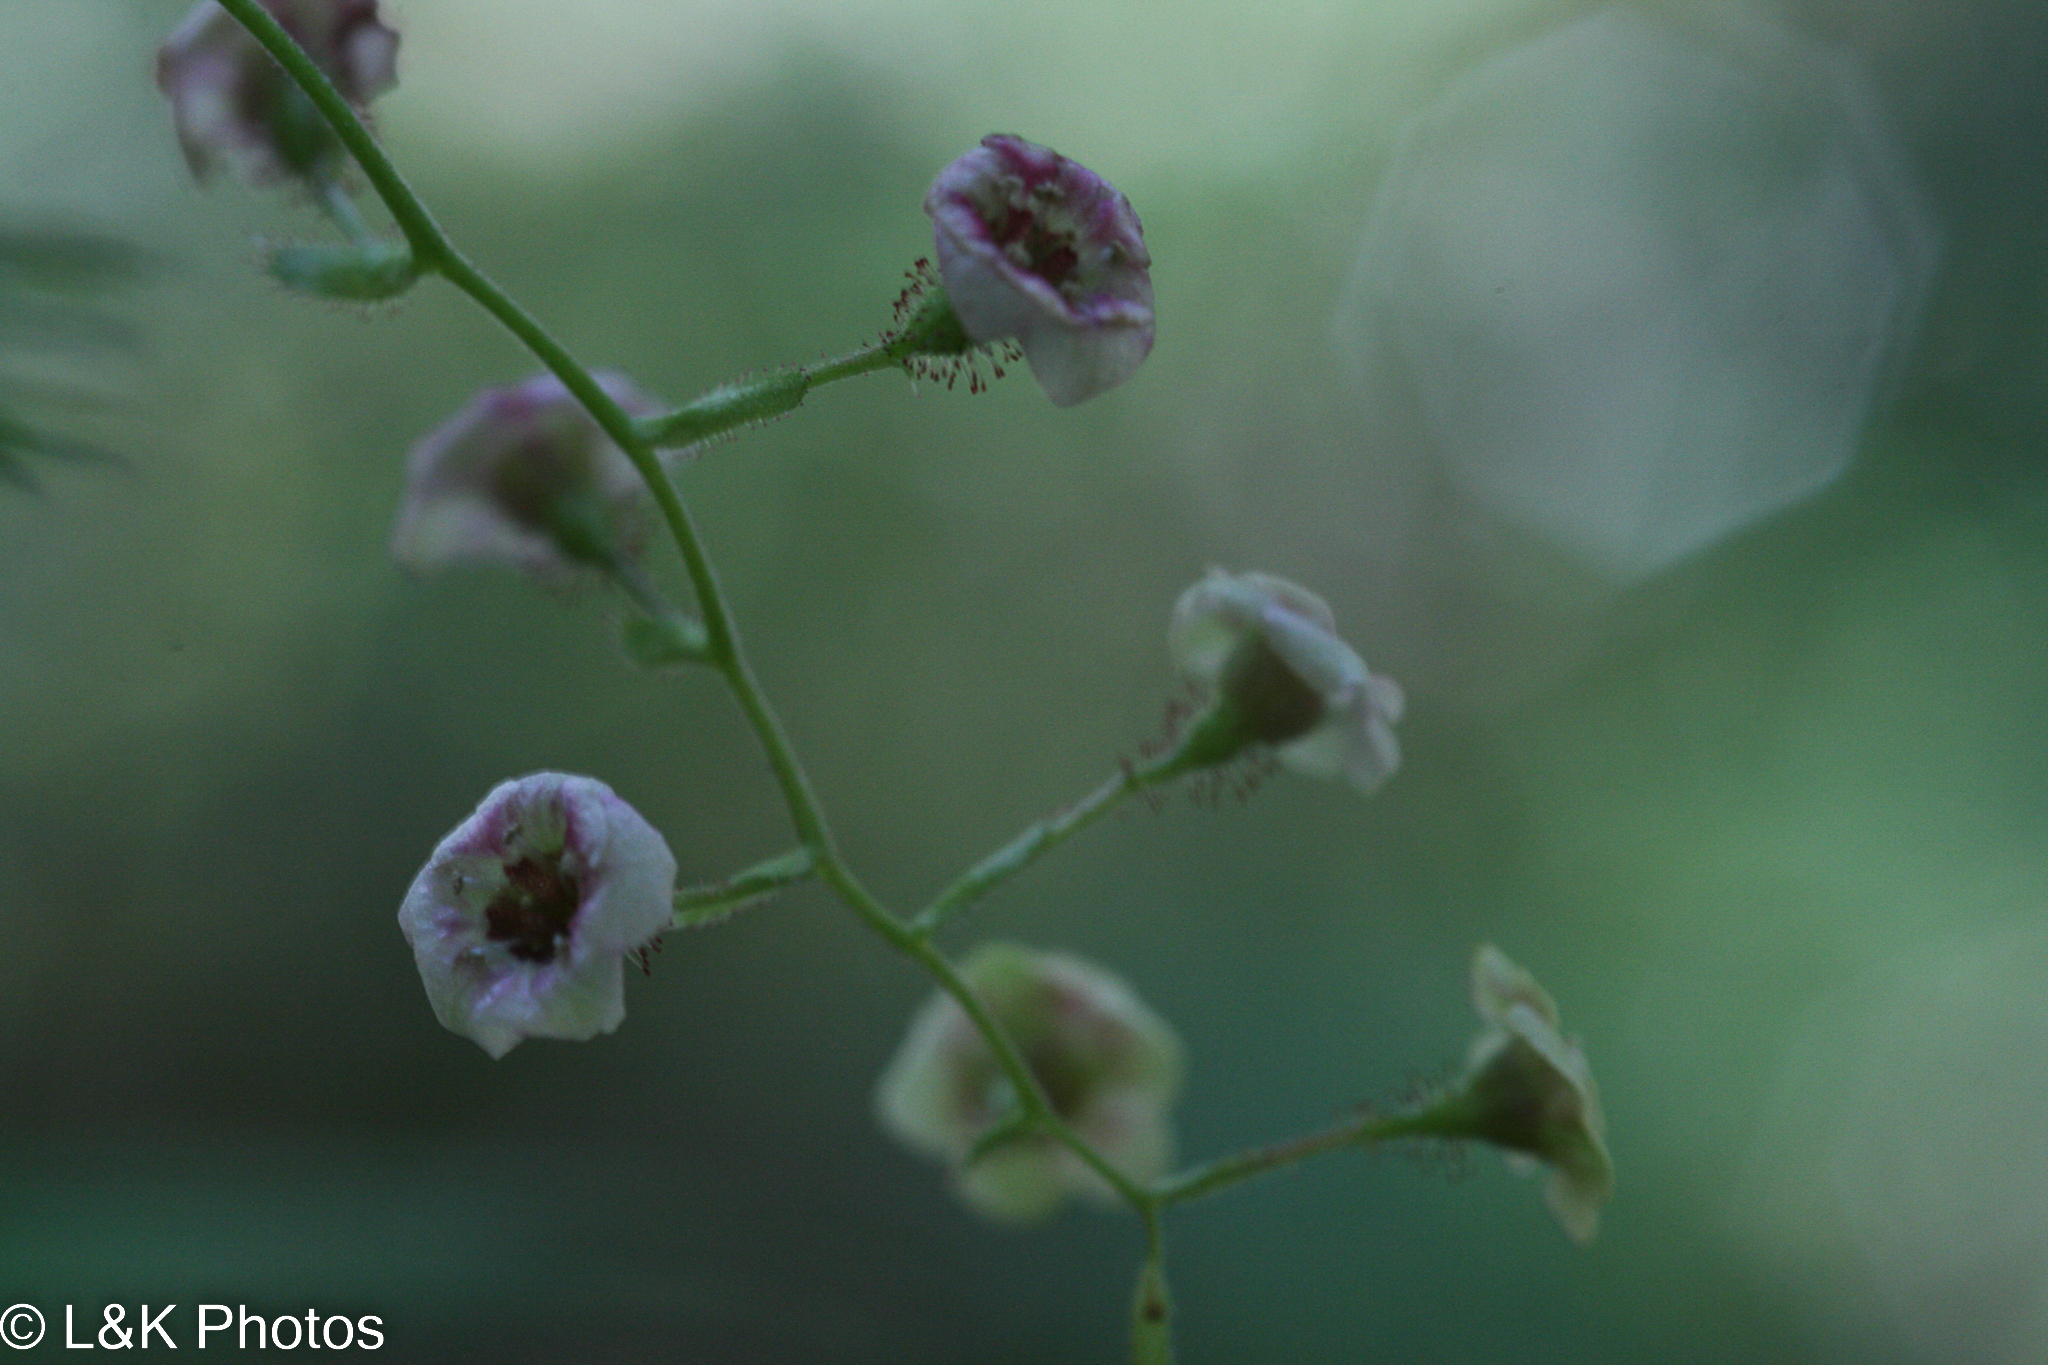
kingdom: Plantae
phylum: Tracheophyta
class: Magnoliopsida
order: Saxifragales
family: Grossulariaceae
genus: Ribes
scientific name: Ribes lacustre
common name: Black gooseberry
